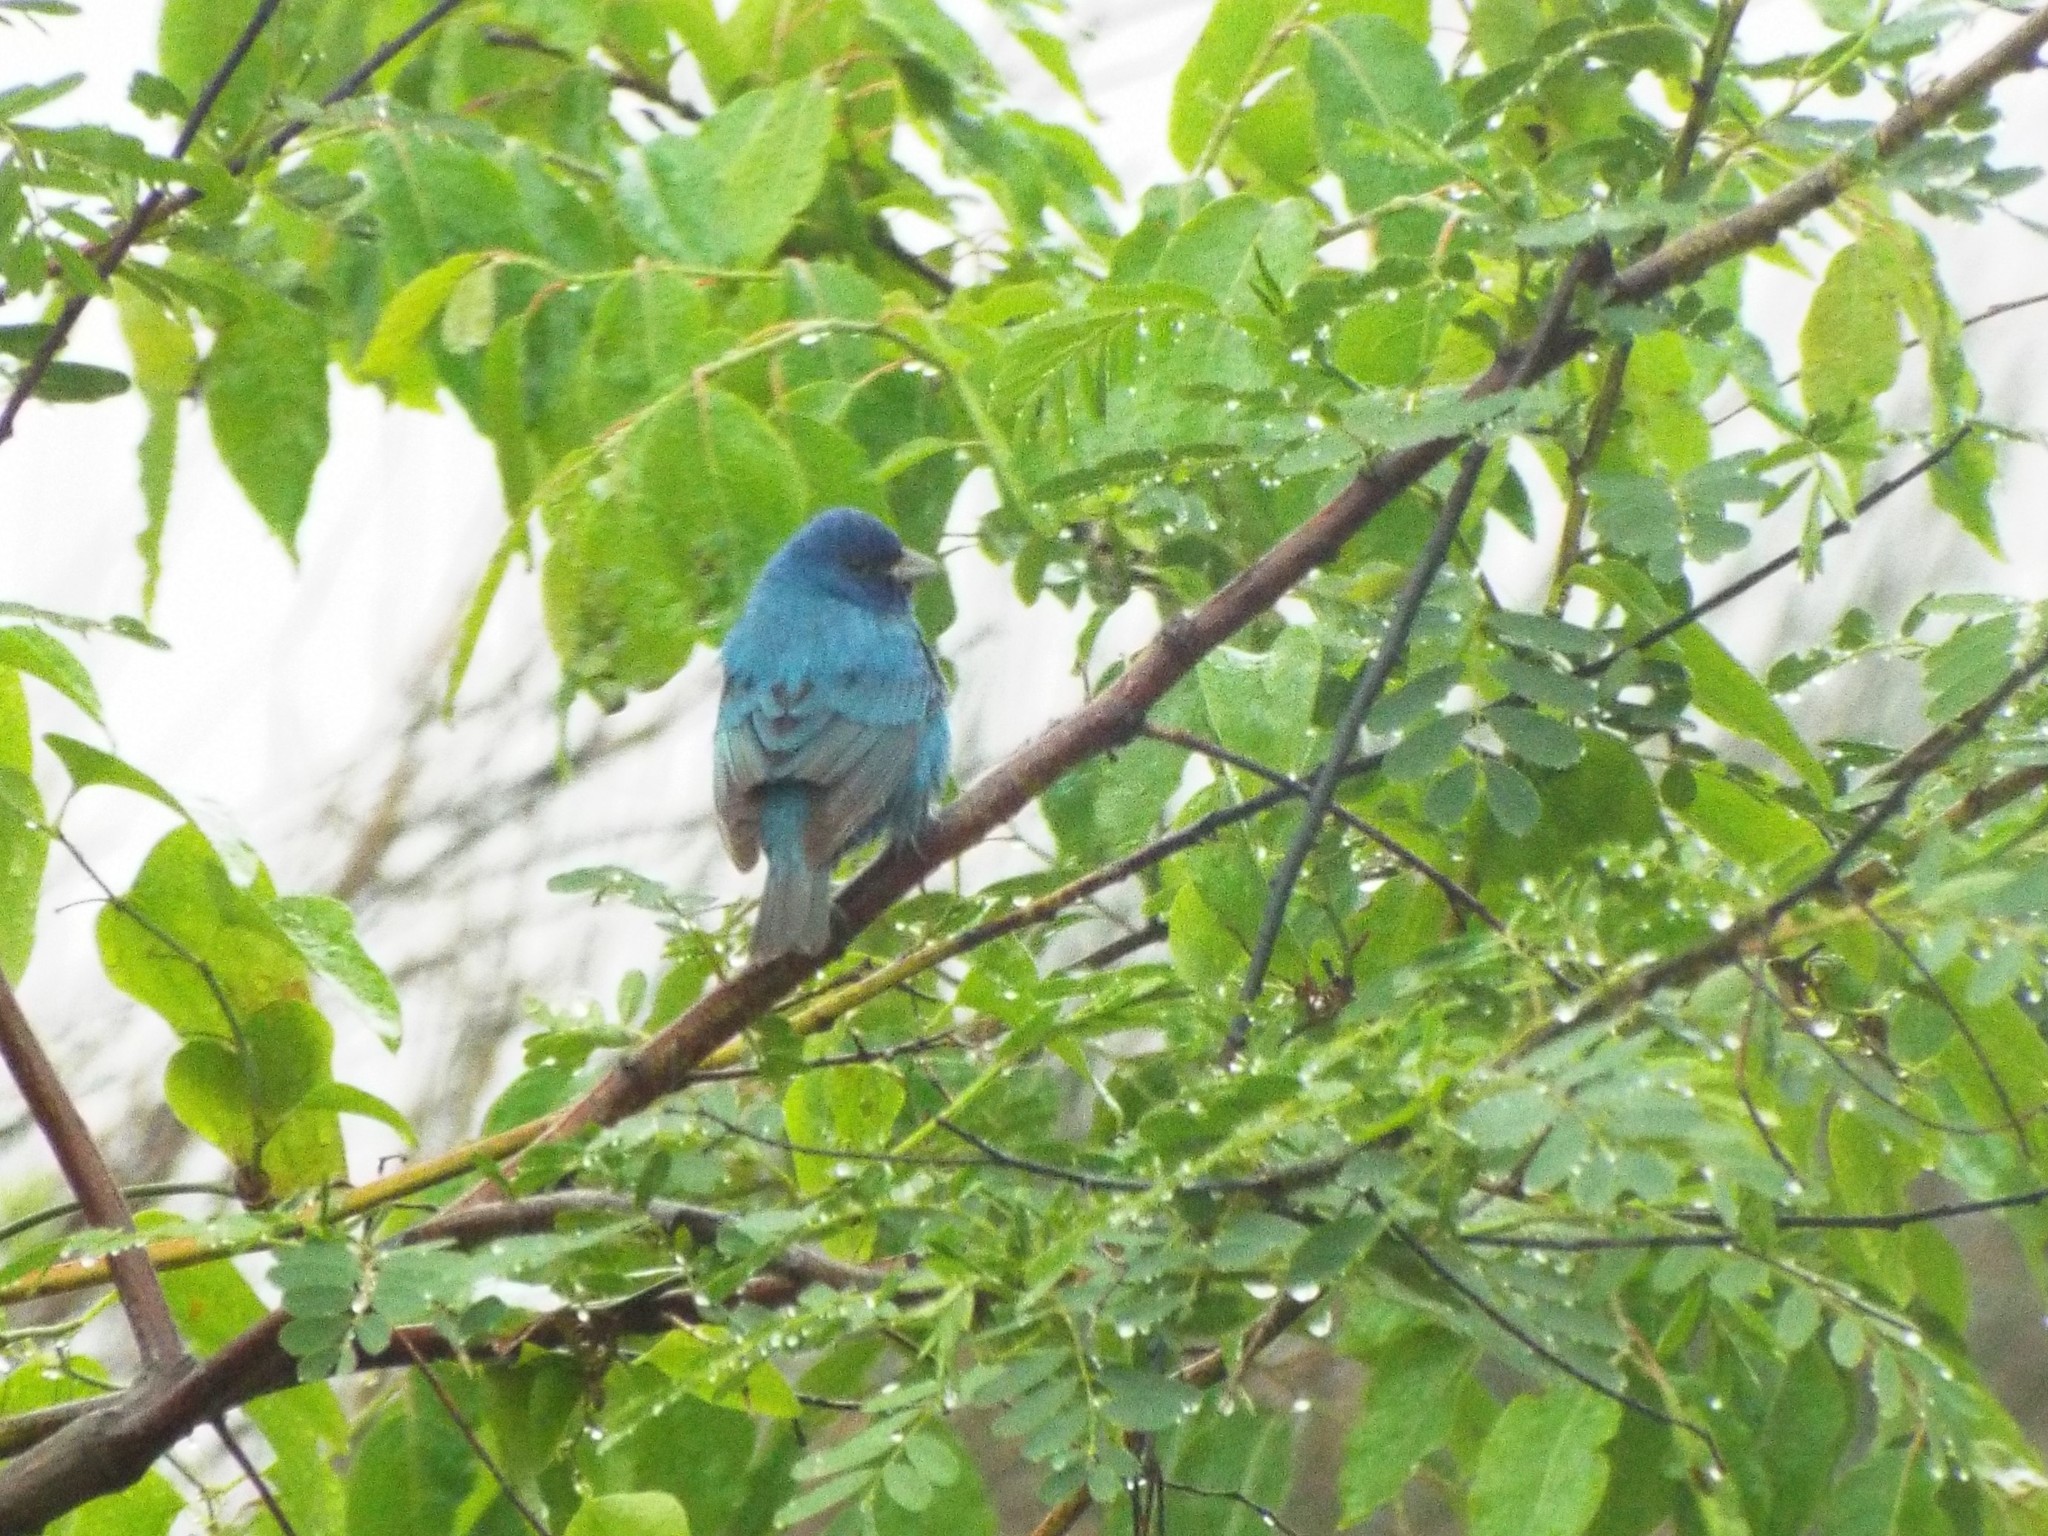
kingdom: Animalia
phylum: Chordata
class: Aves
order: Passeriformes
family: Cardinalidae
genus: Passerina
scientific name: Passerina cyanea
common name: Indigo bunting
